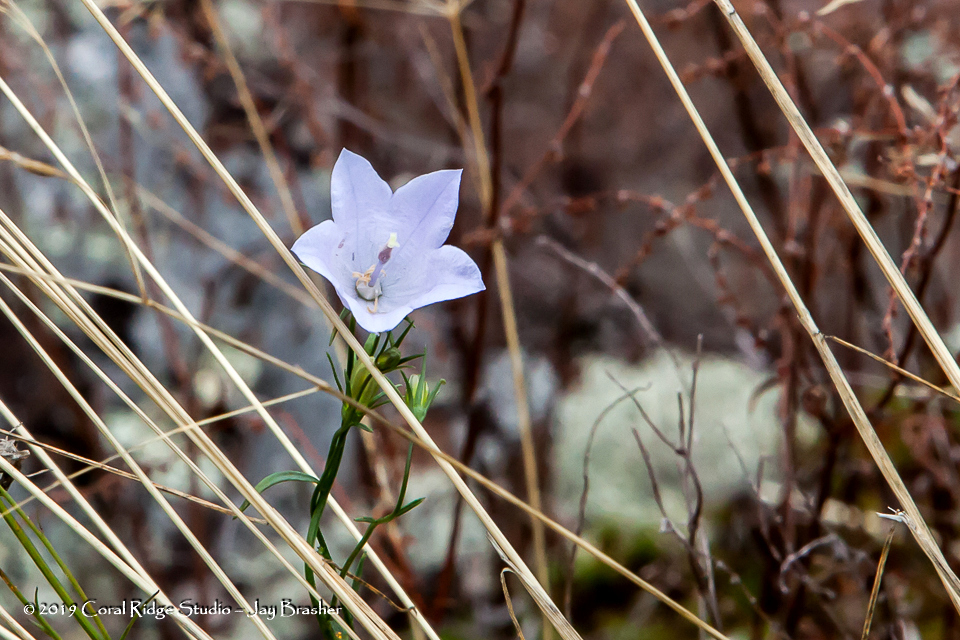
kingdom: Plantae
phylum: Tracheophyta
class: Magnoliopsida
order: Asterales
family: Campanulaceae
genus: Palustricodon
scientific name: Palustricodon aparinoides
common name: Bedstraw bellflower
